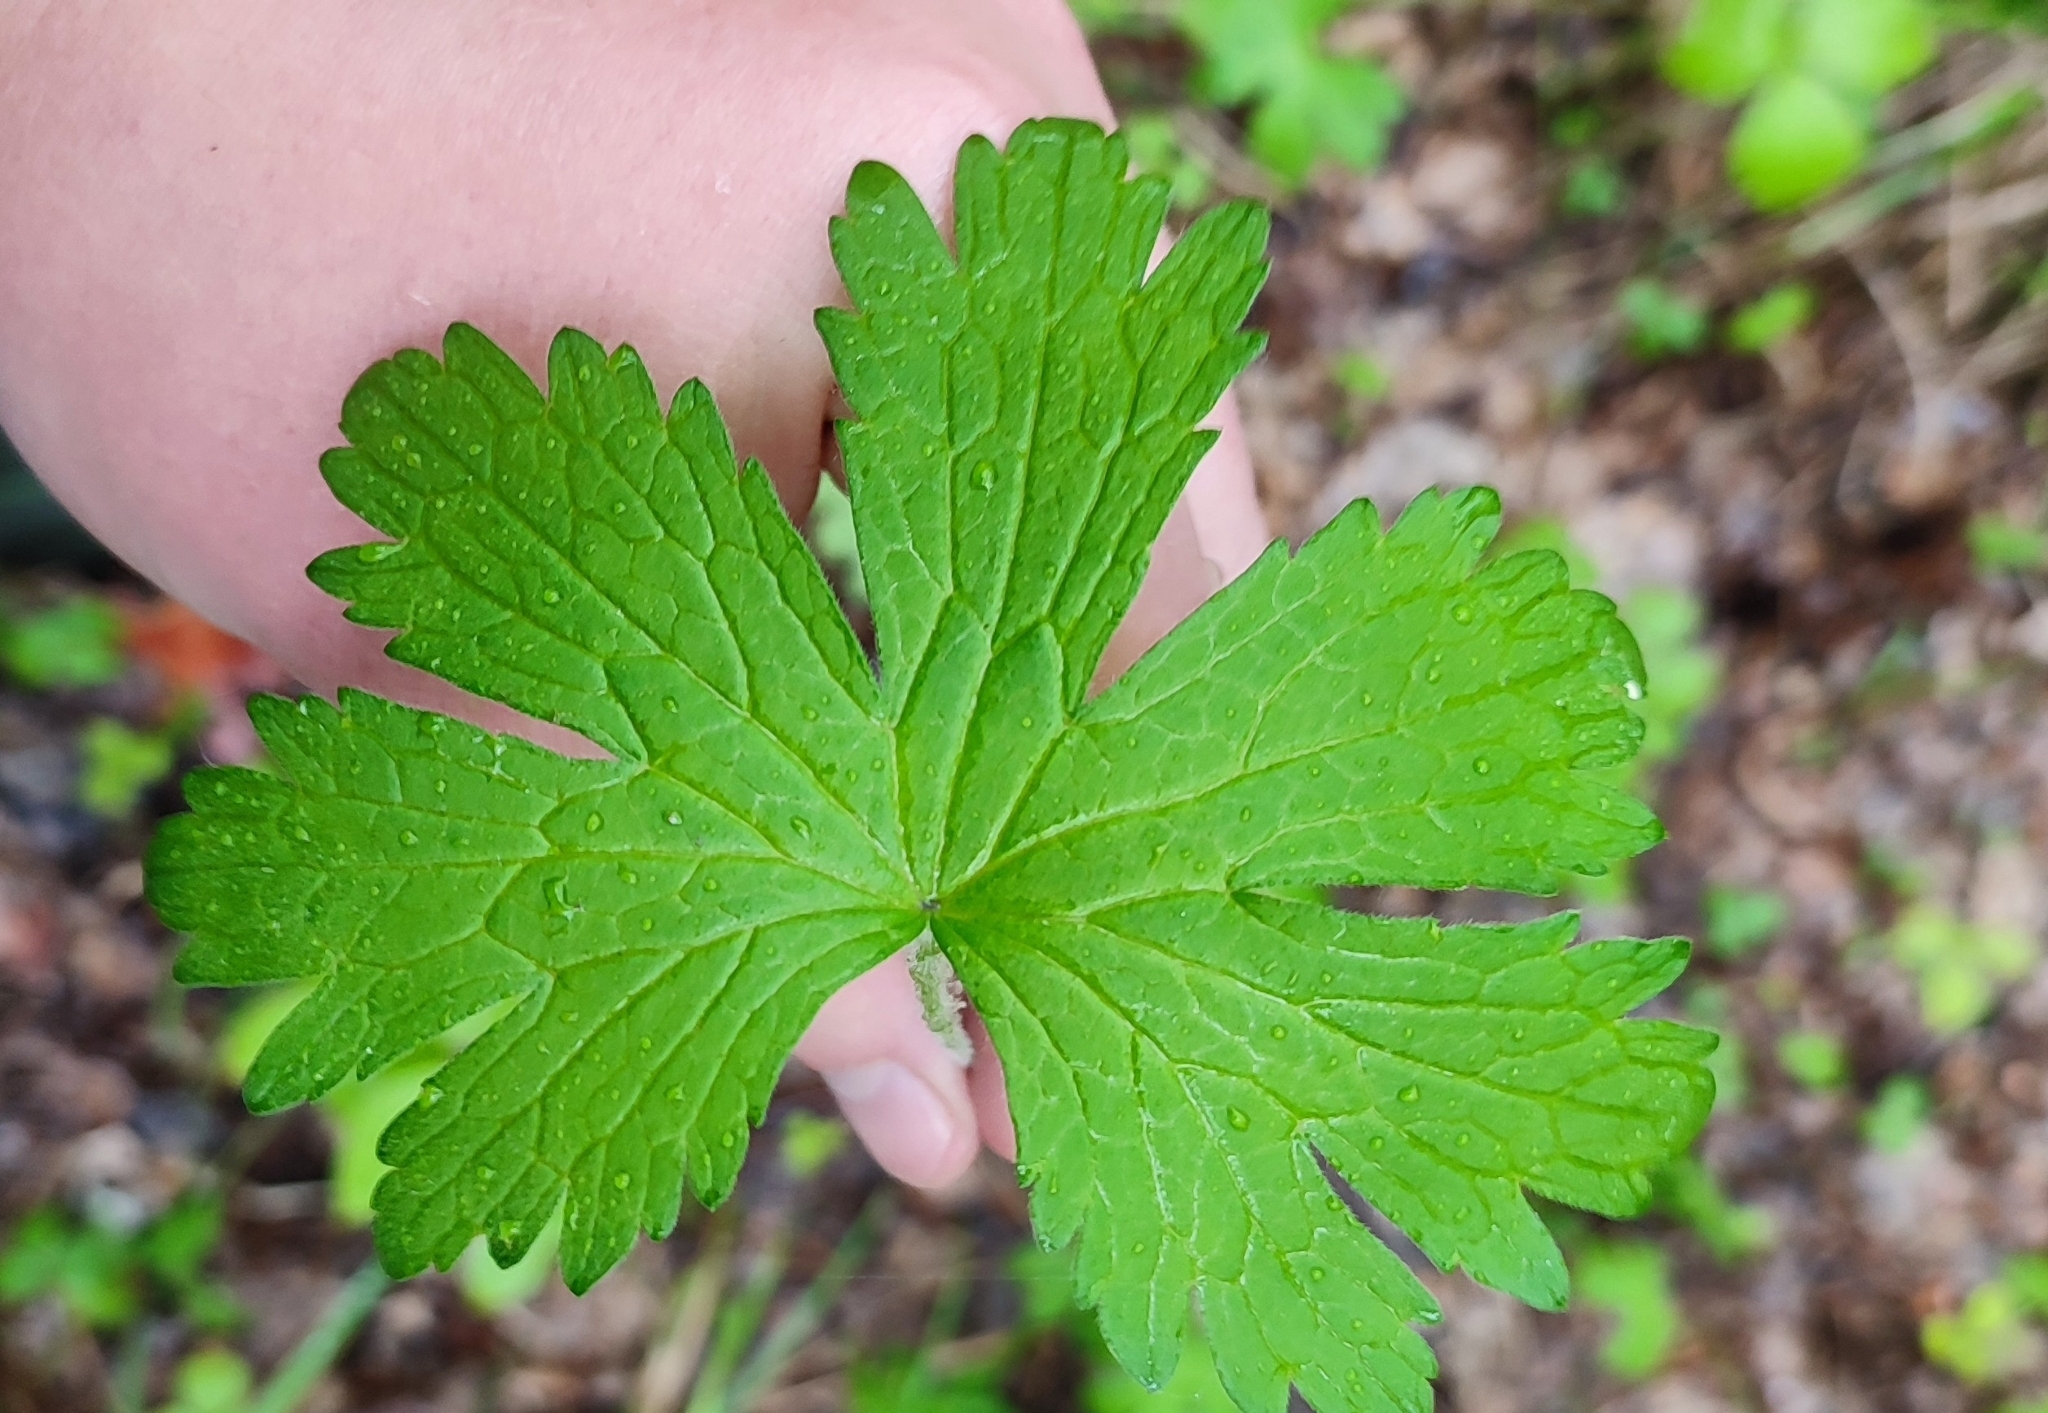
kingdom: Plantae
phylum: Tracheophyta
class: Magnoliopsida
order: Geraniales
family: Geraniaceae
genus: Geranium
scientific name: Geranium sylvaticum
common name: Wood crane's-bill
